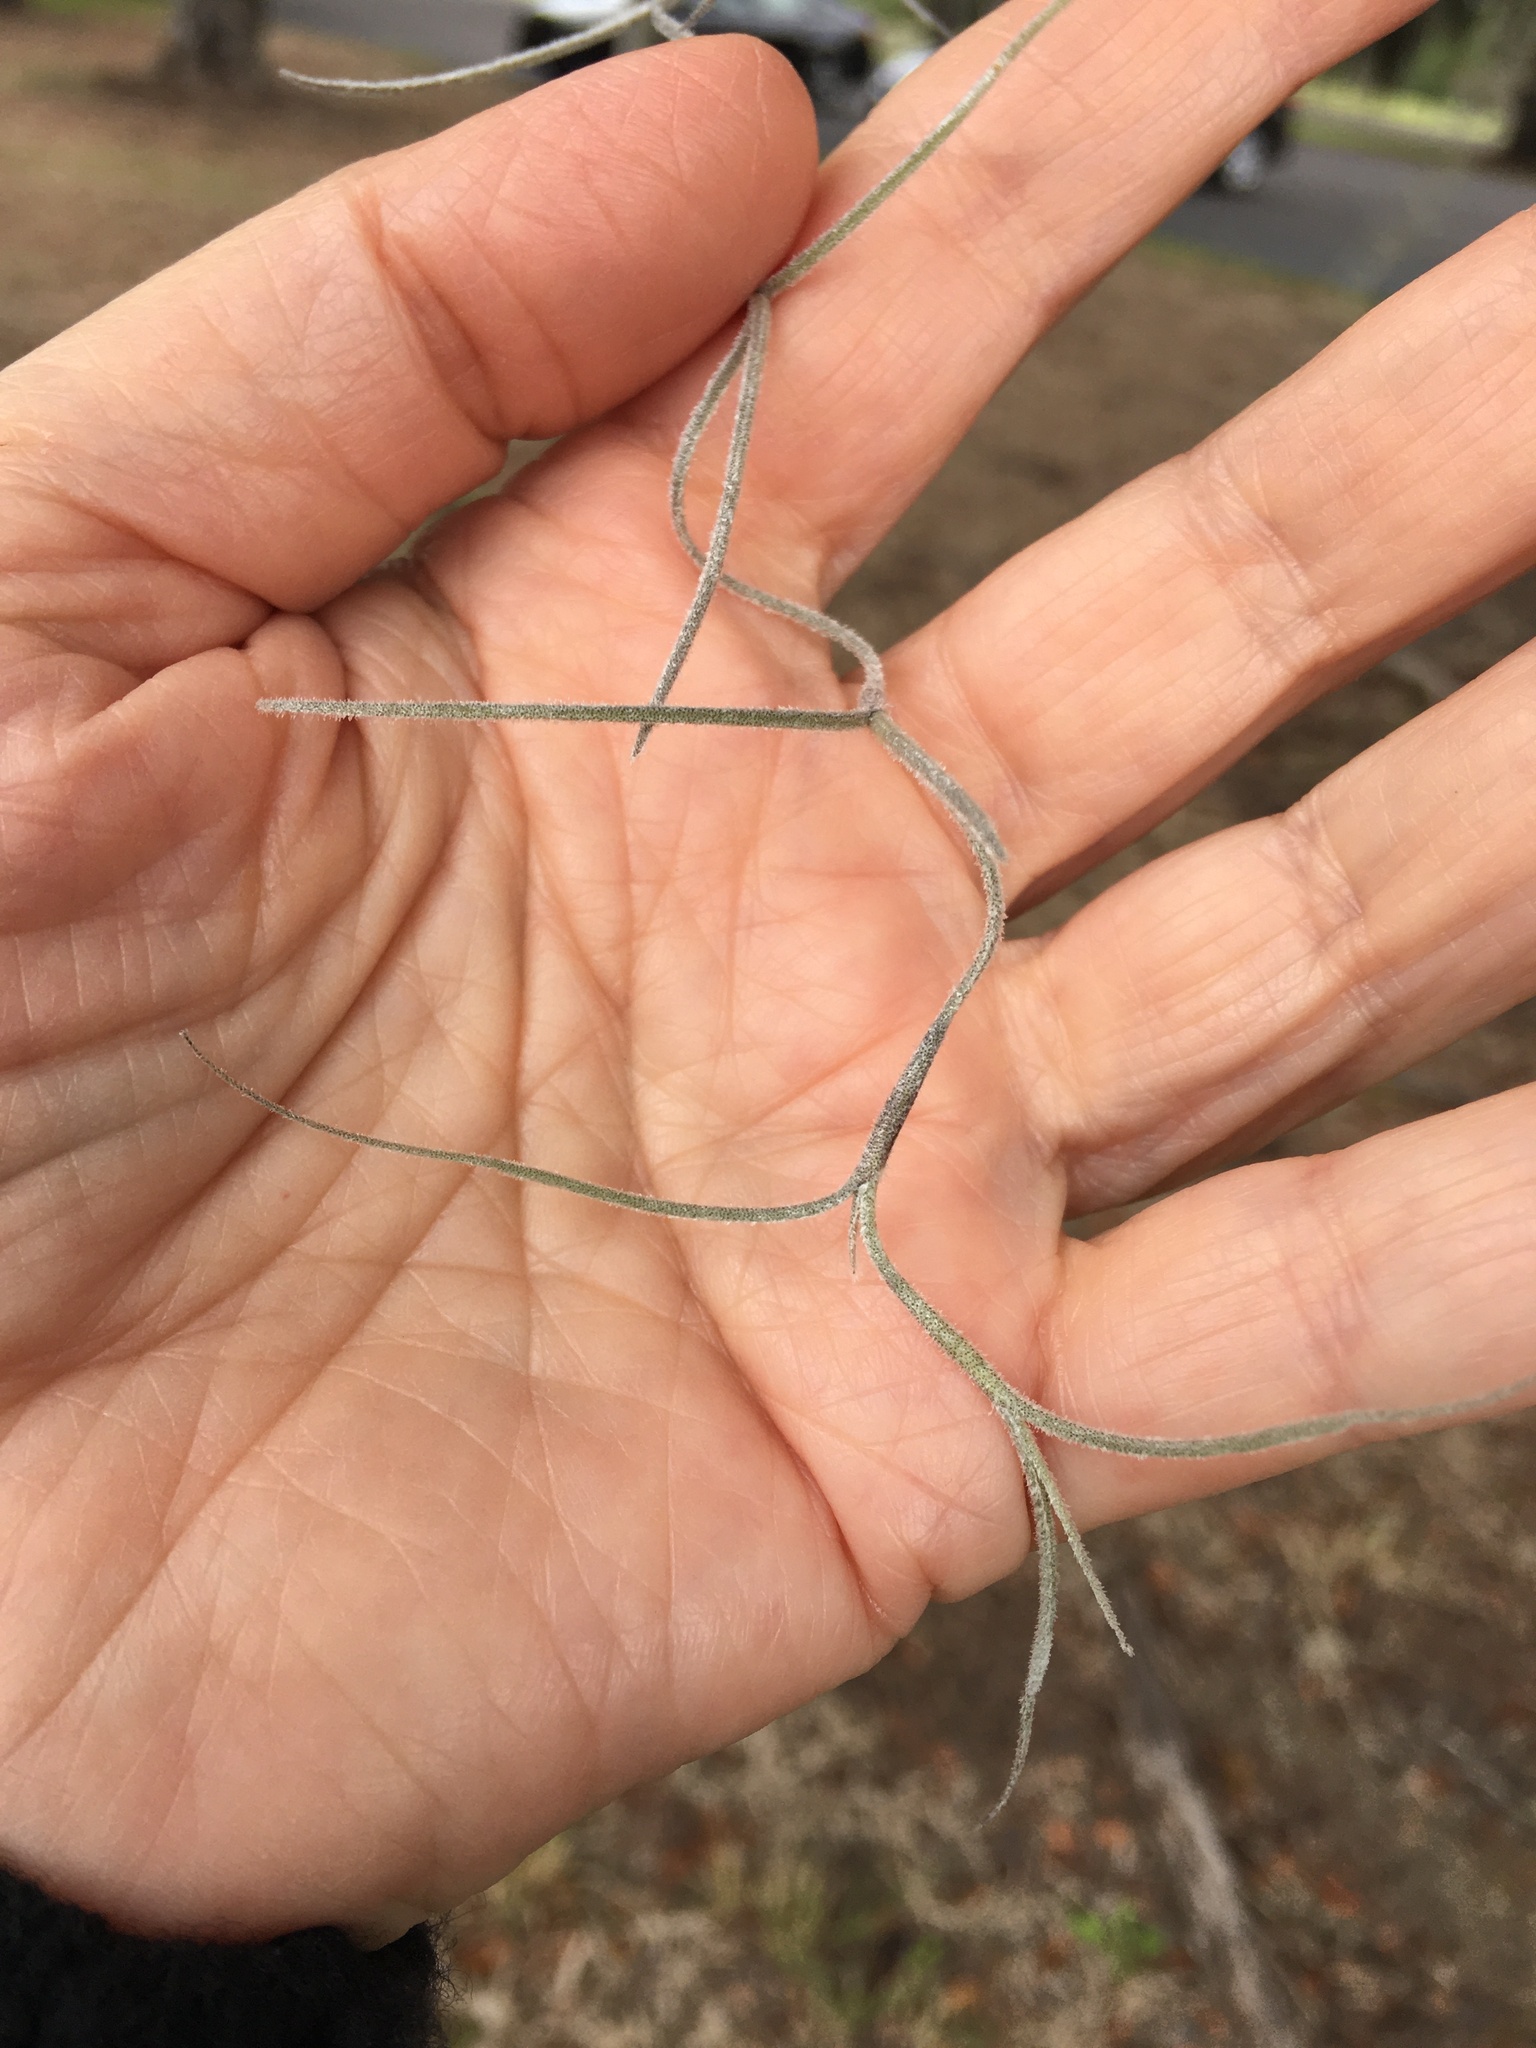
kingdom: Plantae
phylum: Tracheophyta
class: Liliopsida
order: Poales
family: Bromeliaceae
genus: Tillandsia
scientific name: Tillandsia usneoides
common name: Spanish moss
